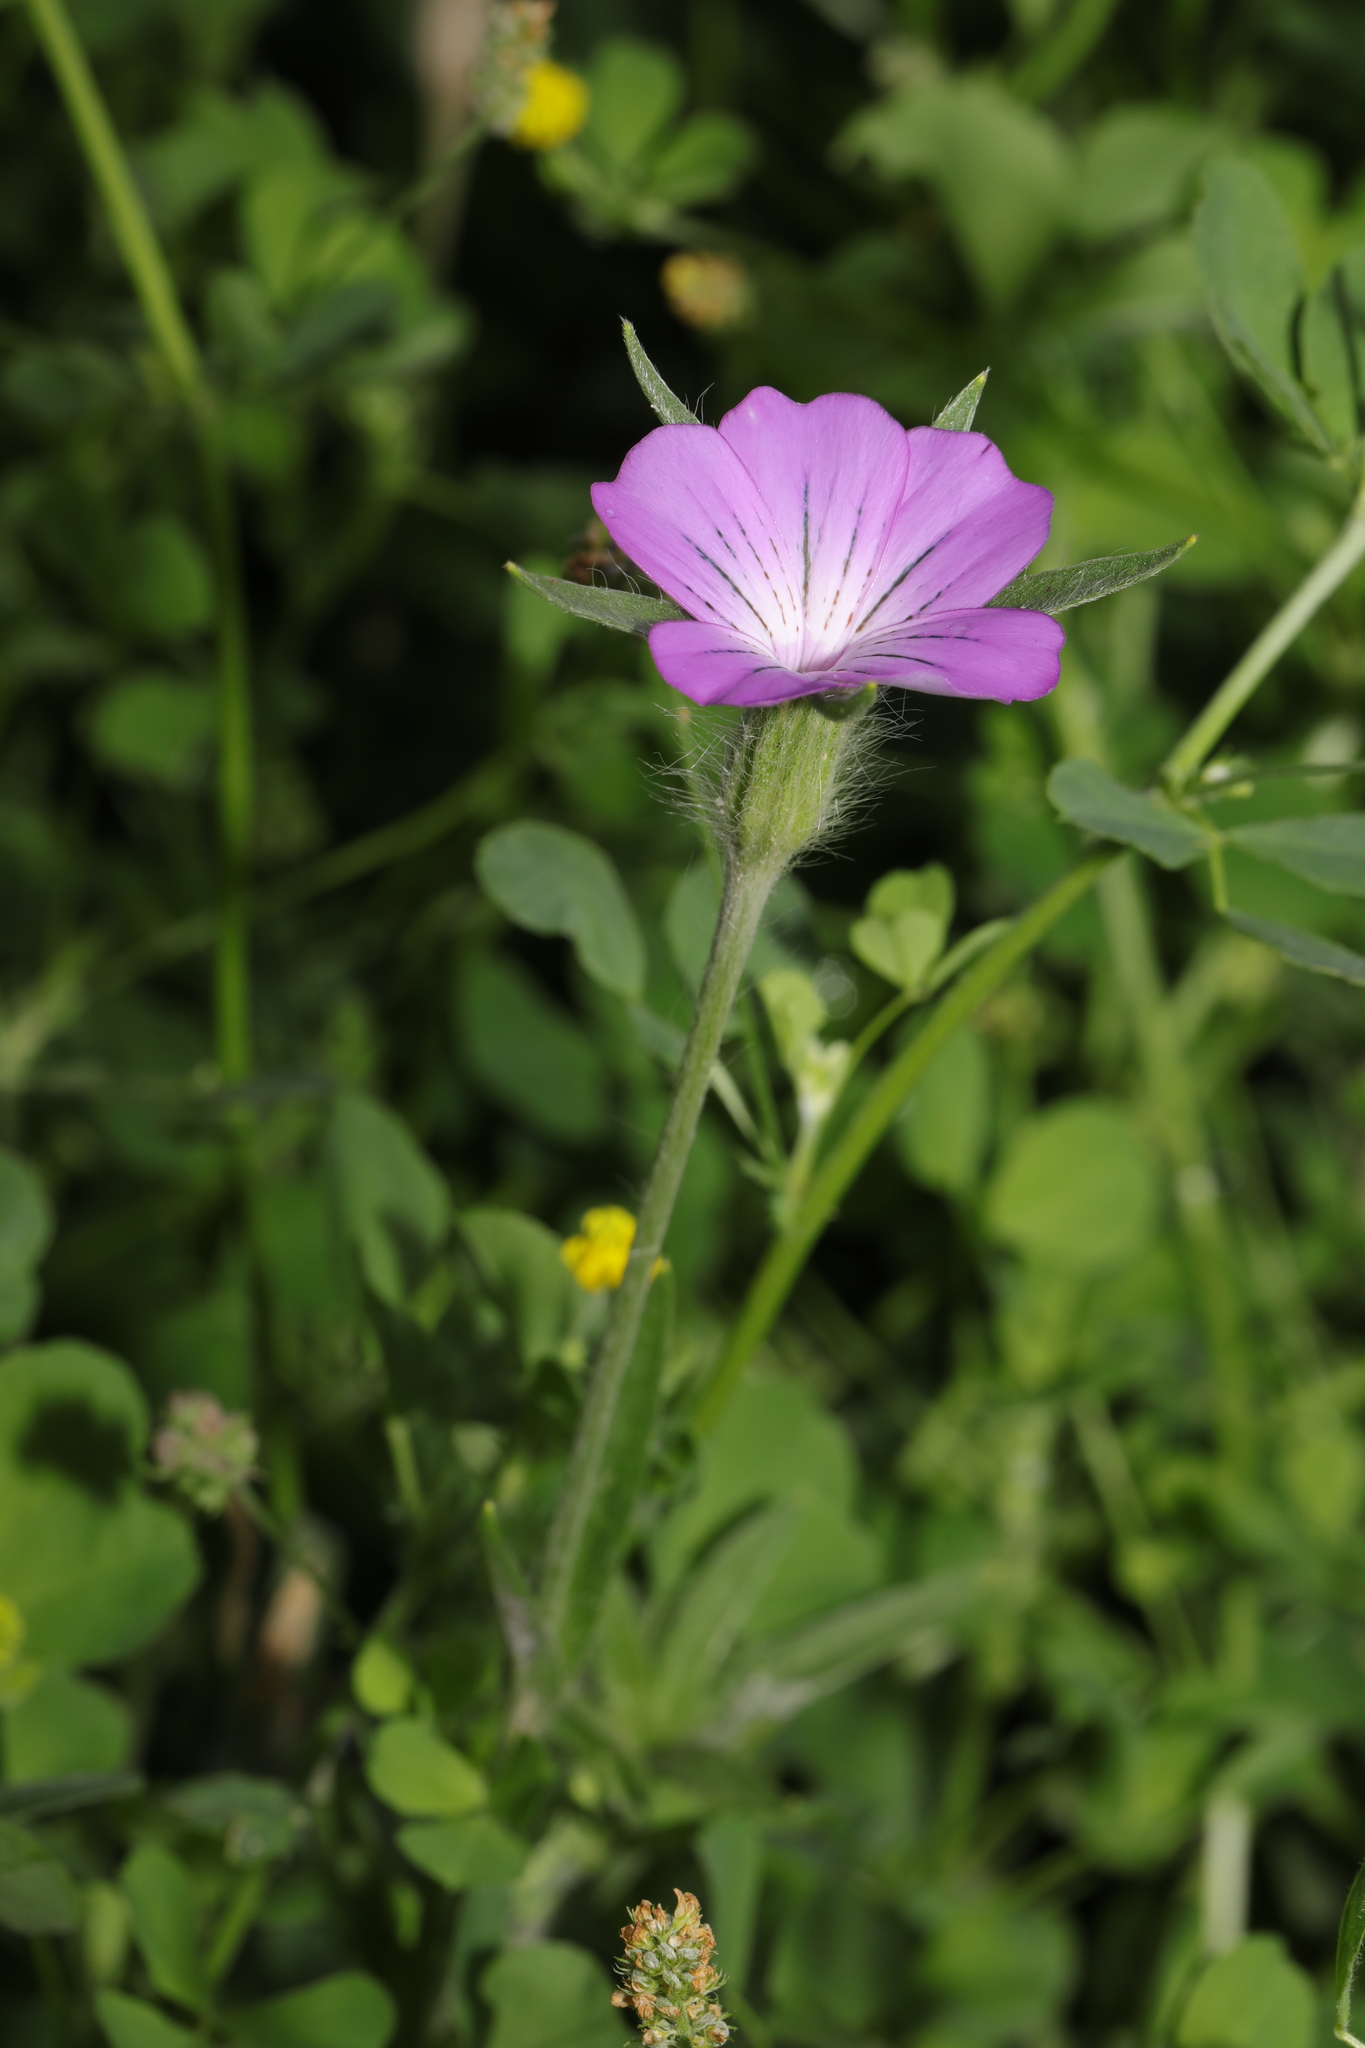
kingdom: Plantae
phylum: Tracheophyta
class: Magnoliopsida
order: Caryophyllales
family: Caryophyllaceae
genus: Agrostemma
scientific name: Agrostemma githago
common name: Common corncockle
